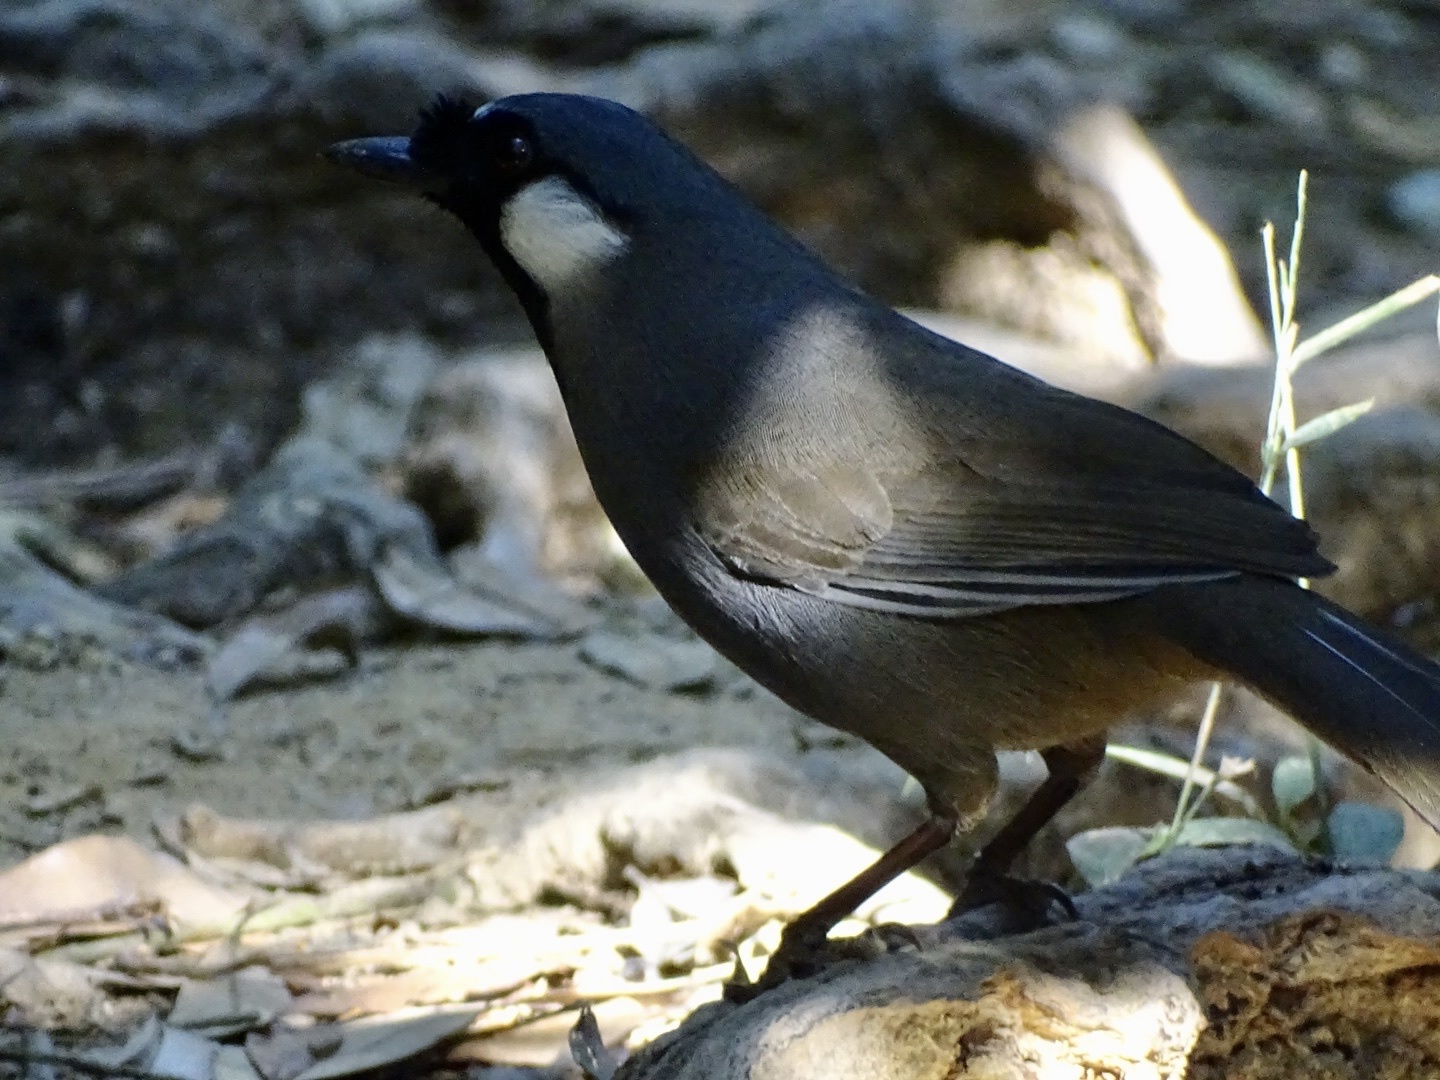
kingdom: Animalia
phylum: Chordata
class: Aves
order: Passeriformes
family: Leiothrichidae
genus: Garrulax
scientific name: Garrulax chinensis
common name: Black-throated laughingthrush
